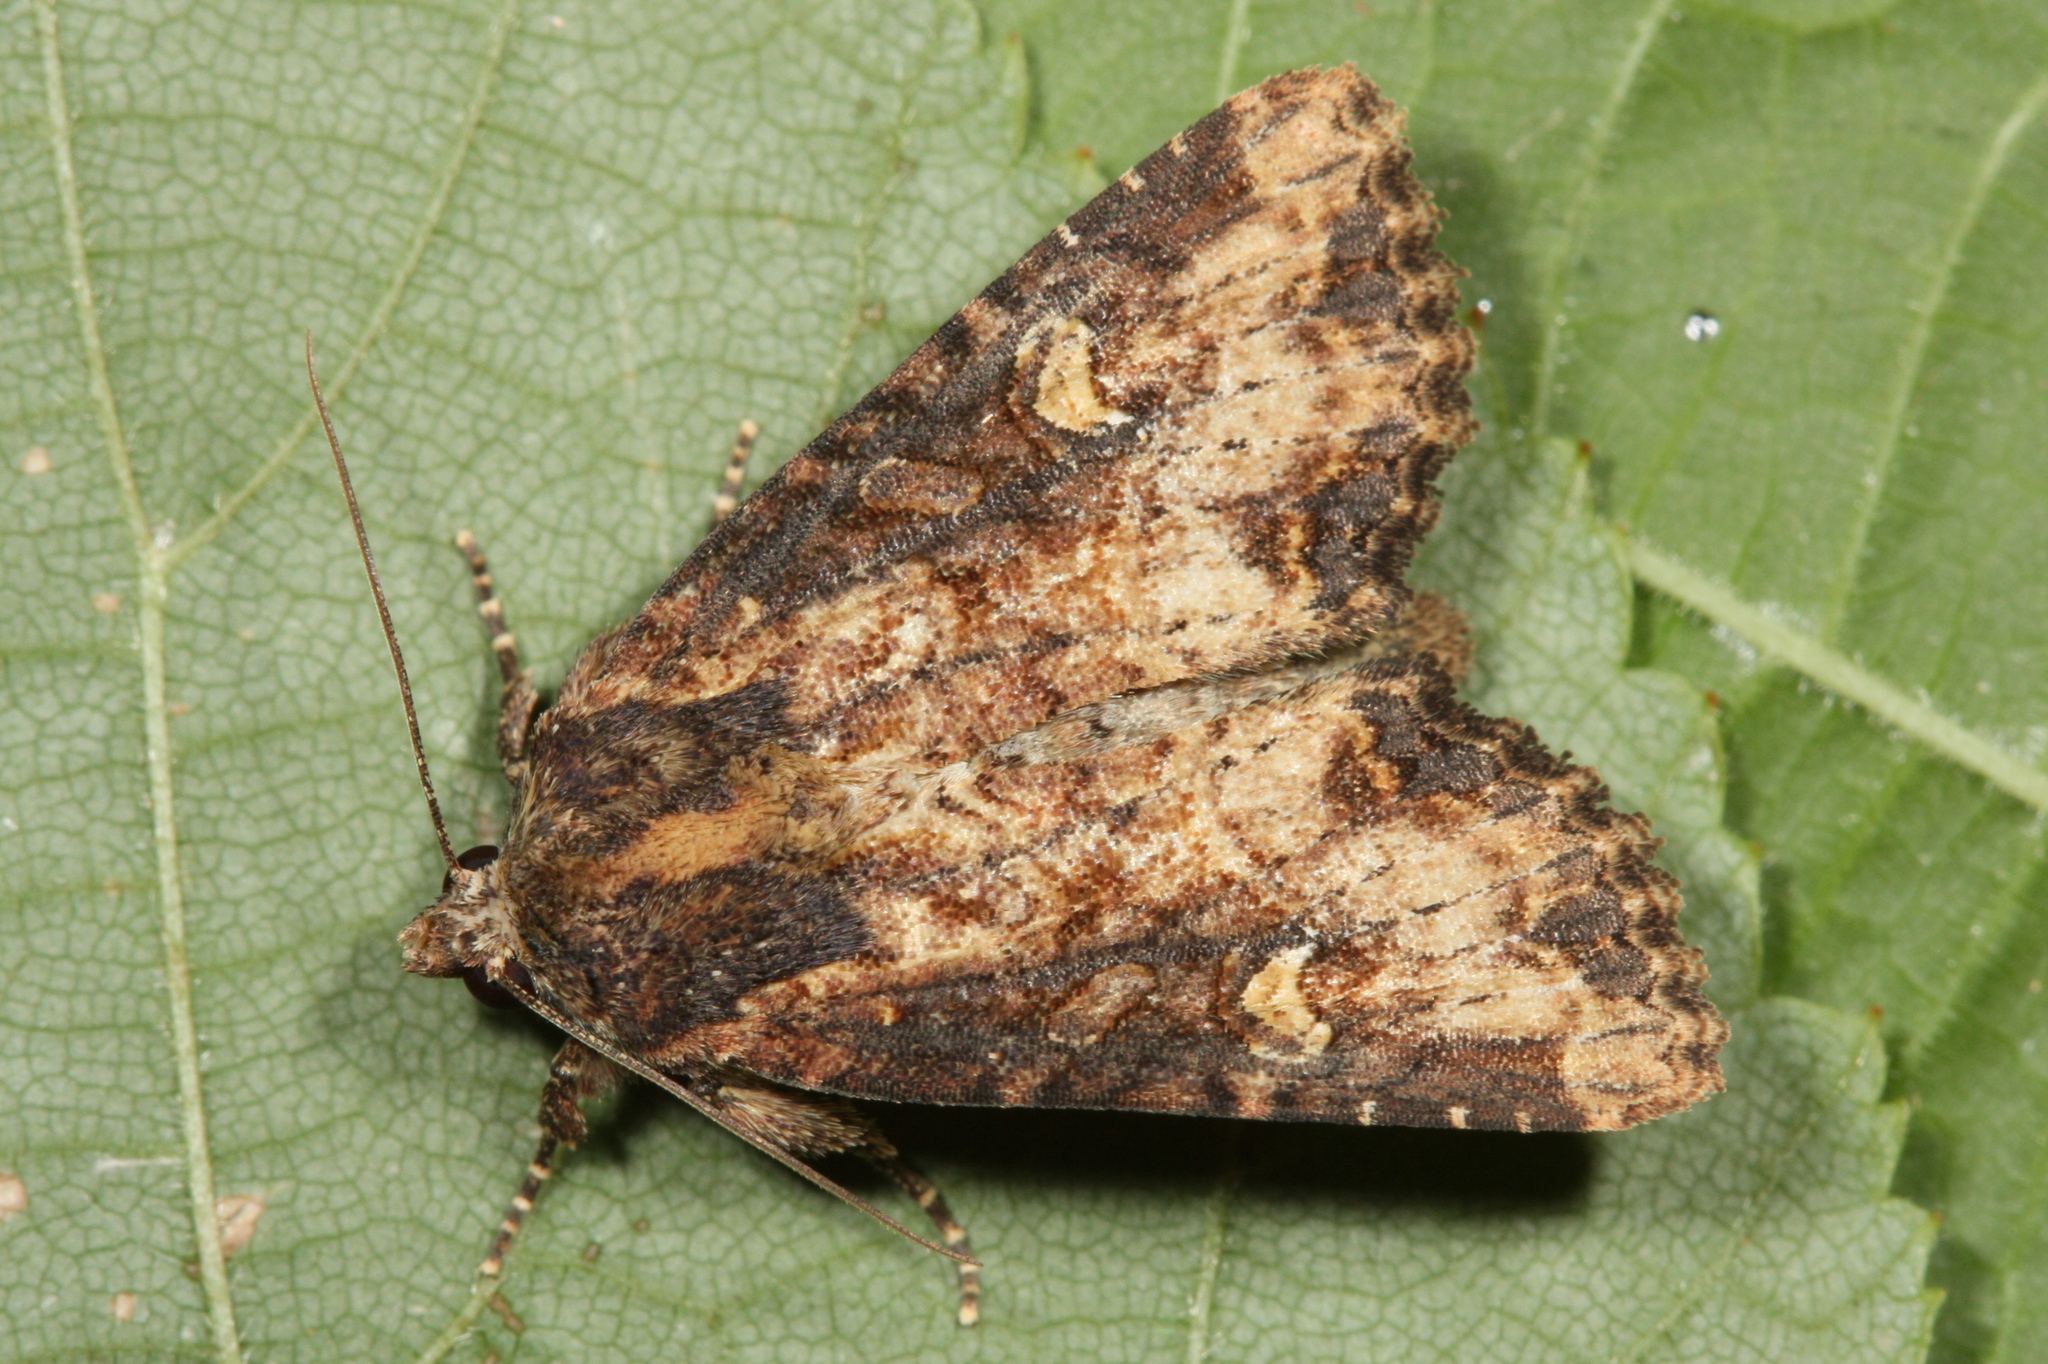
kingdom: Animalia
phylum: Arthropoda
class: Insecta
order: Lepidoptera
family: Noctuidae
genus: Mesapamea
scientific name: Mesapamea
